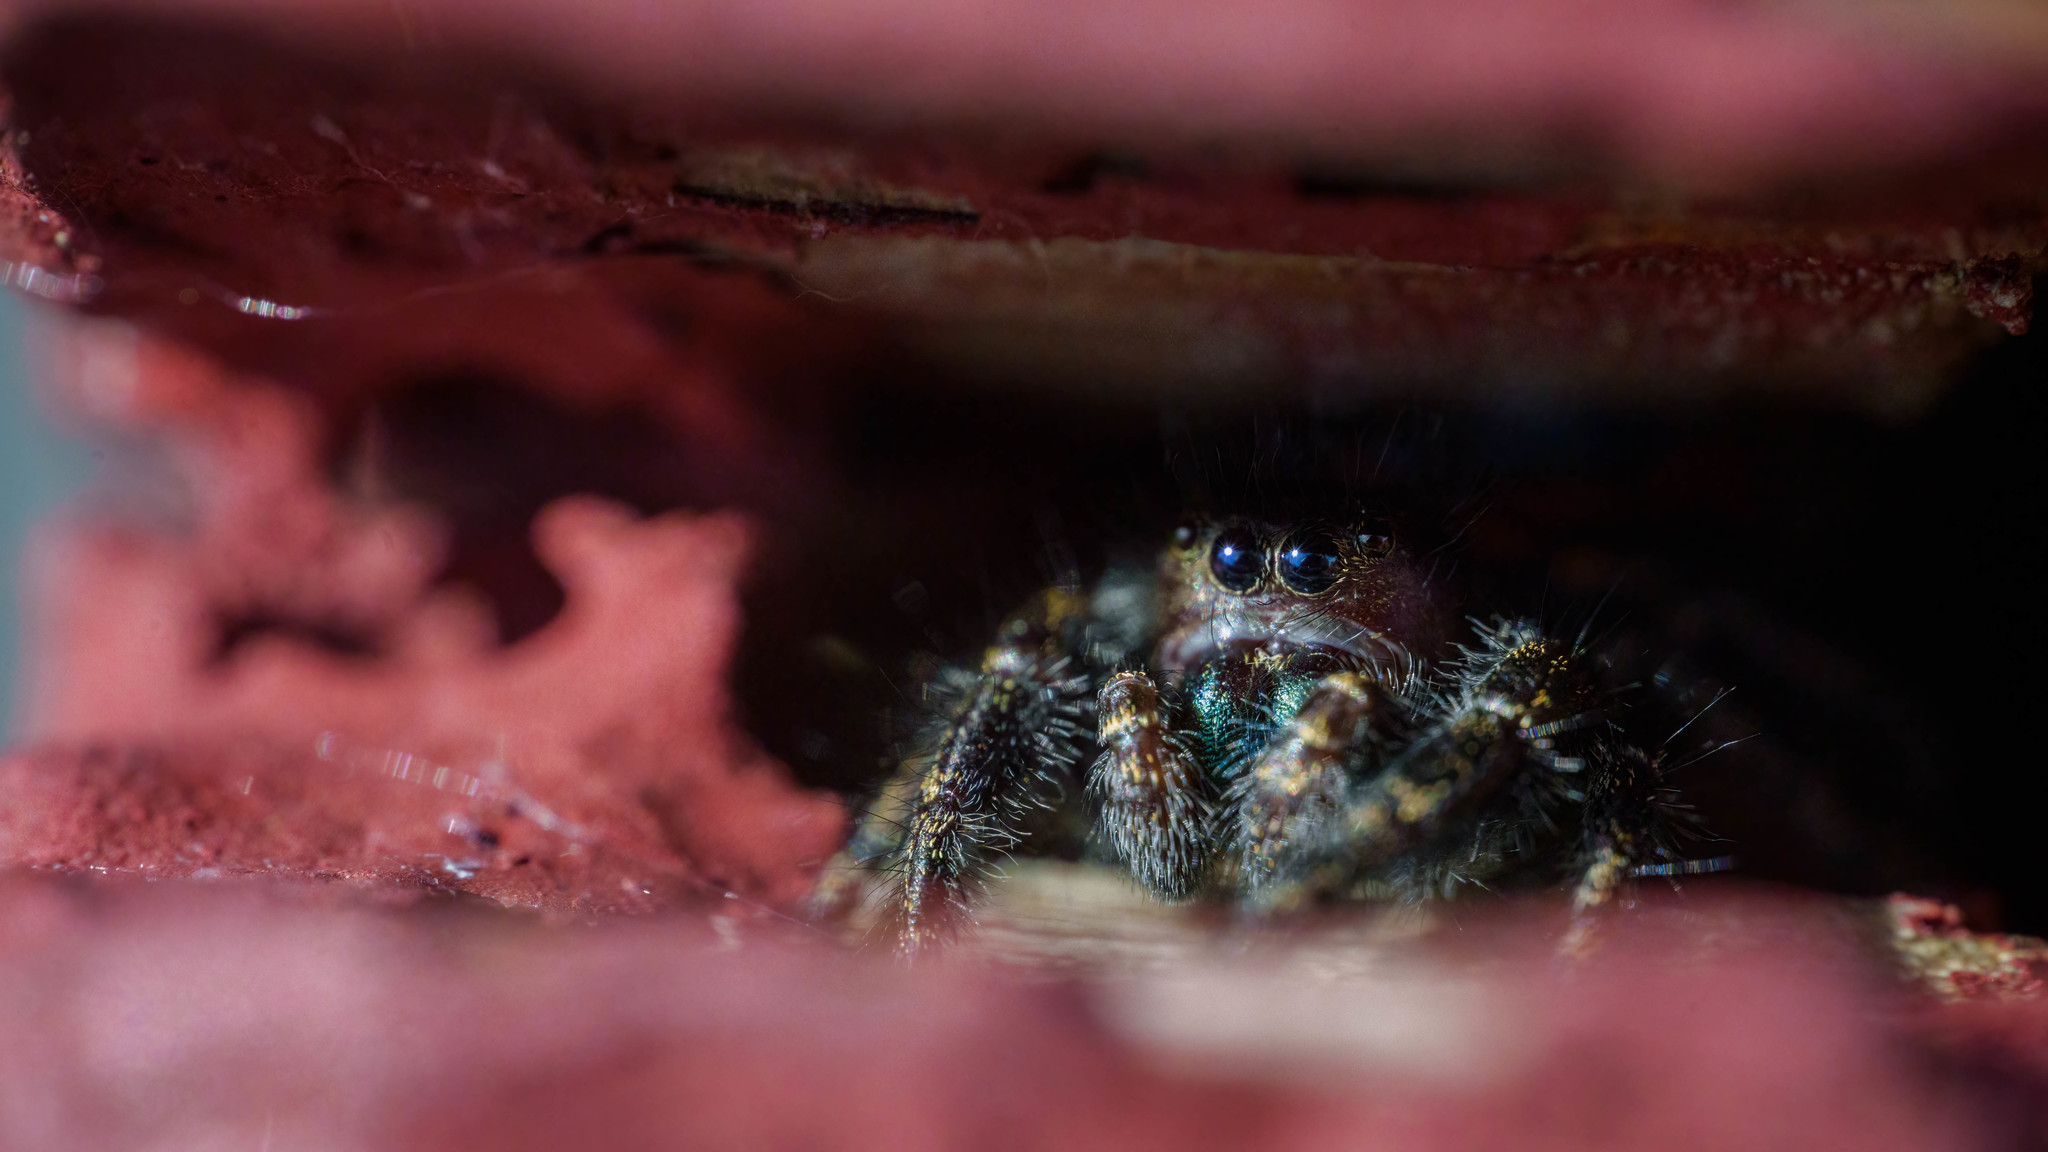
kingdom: Animalia
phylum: Arthropoda
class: Arachnida
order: Araneae
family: Salticidae
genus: Phidippus
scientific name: Phidippus johnsoni
